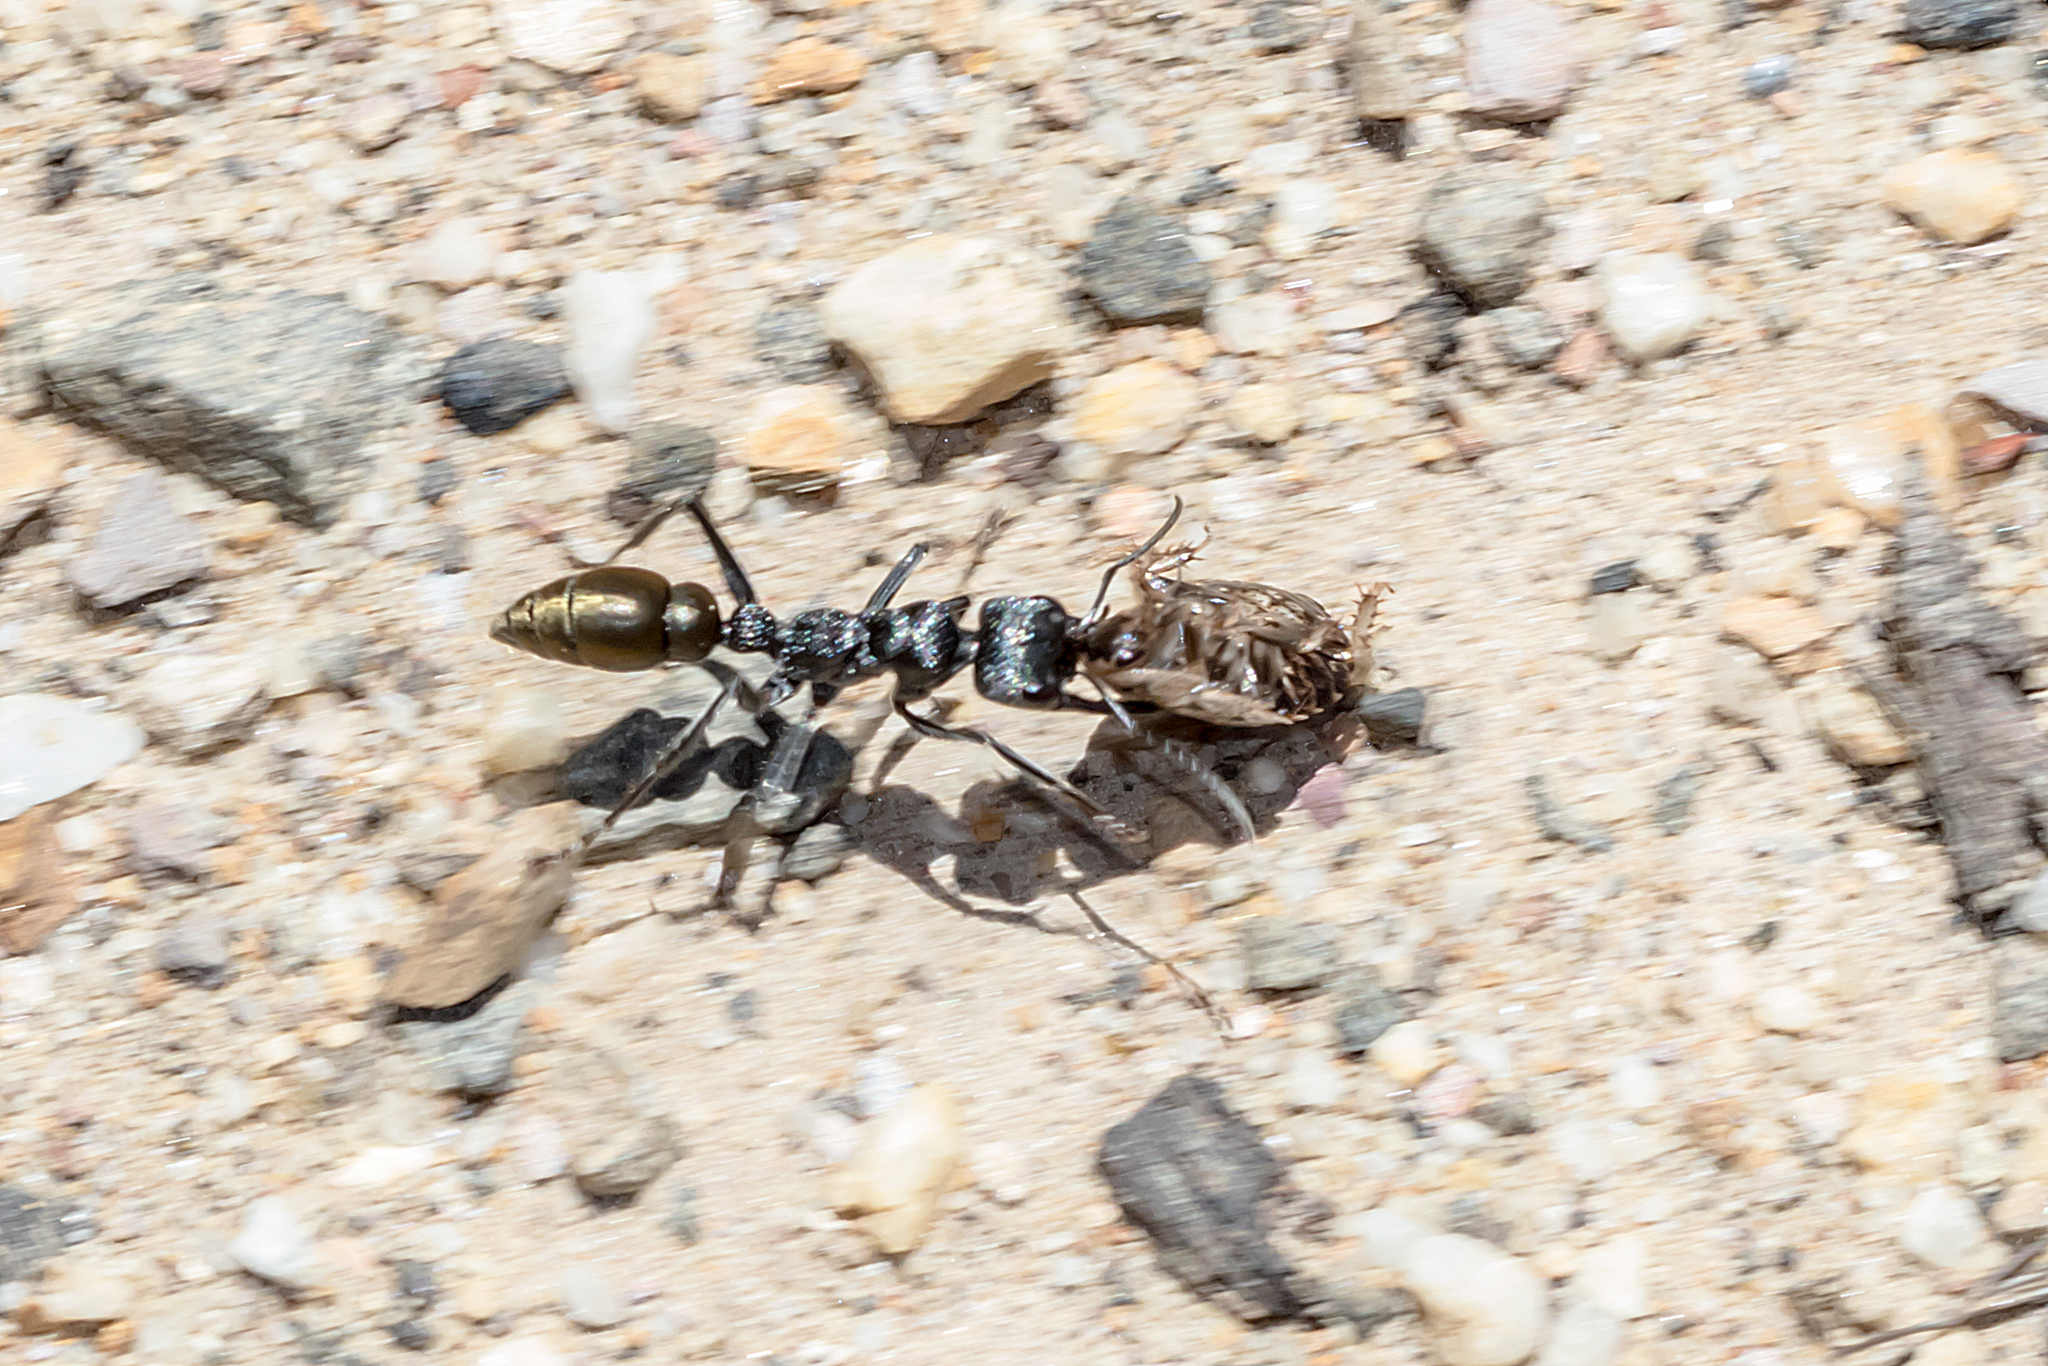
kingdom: Animalia
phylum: Arthropoda
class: Insecta
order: Hymenoptera
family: Formicidae
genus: Myrmecia
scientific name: Myrmecia piliventris
